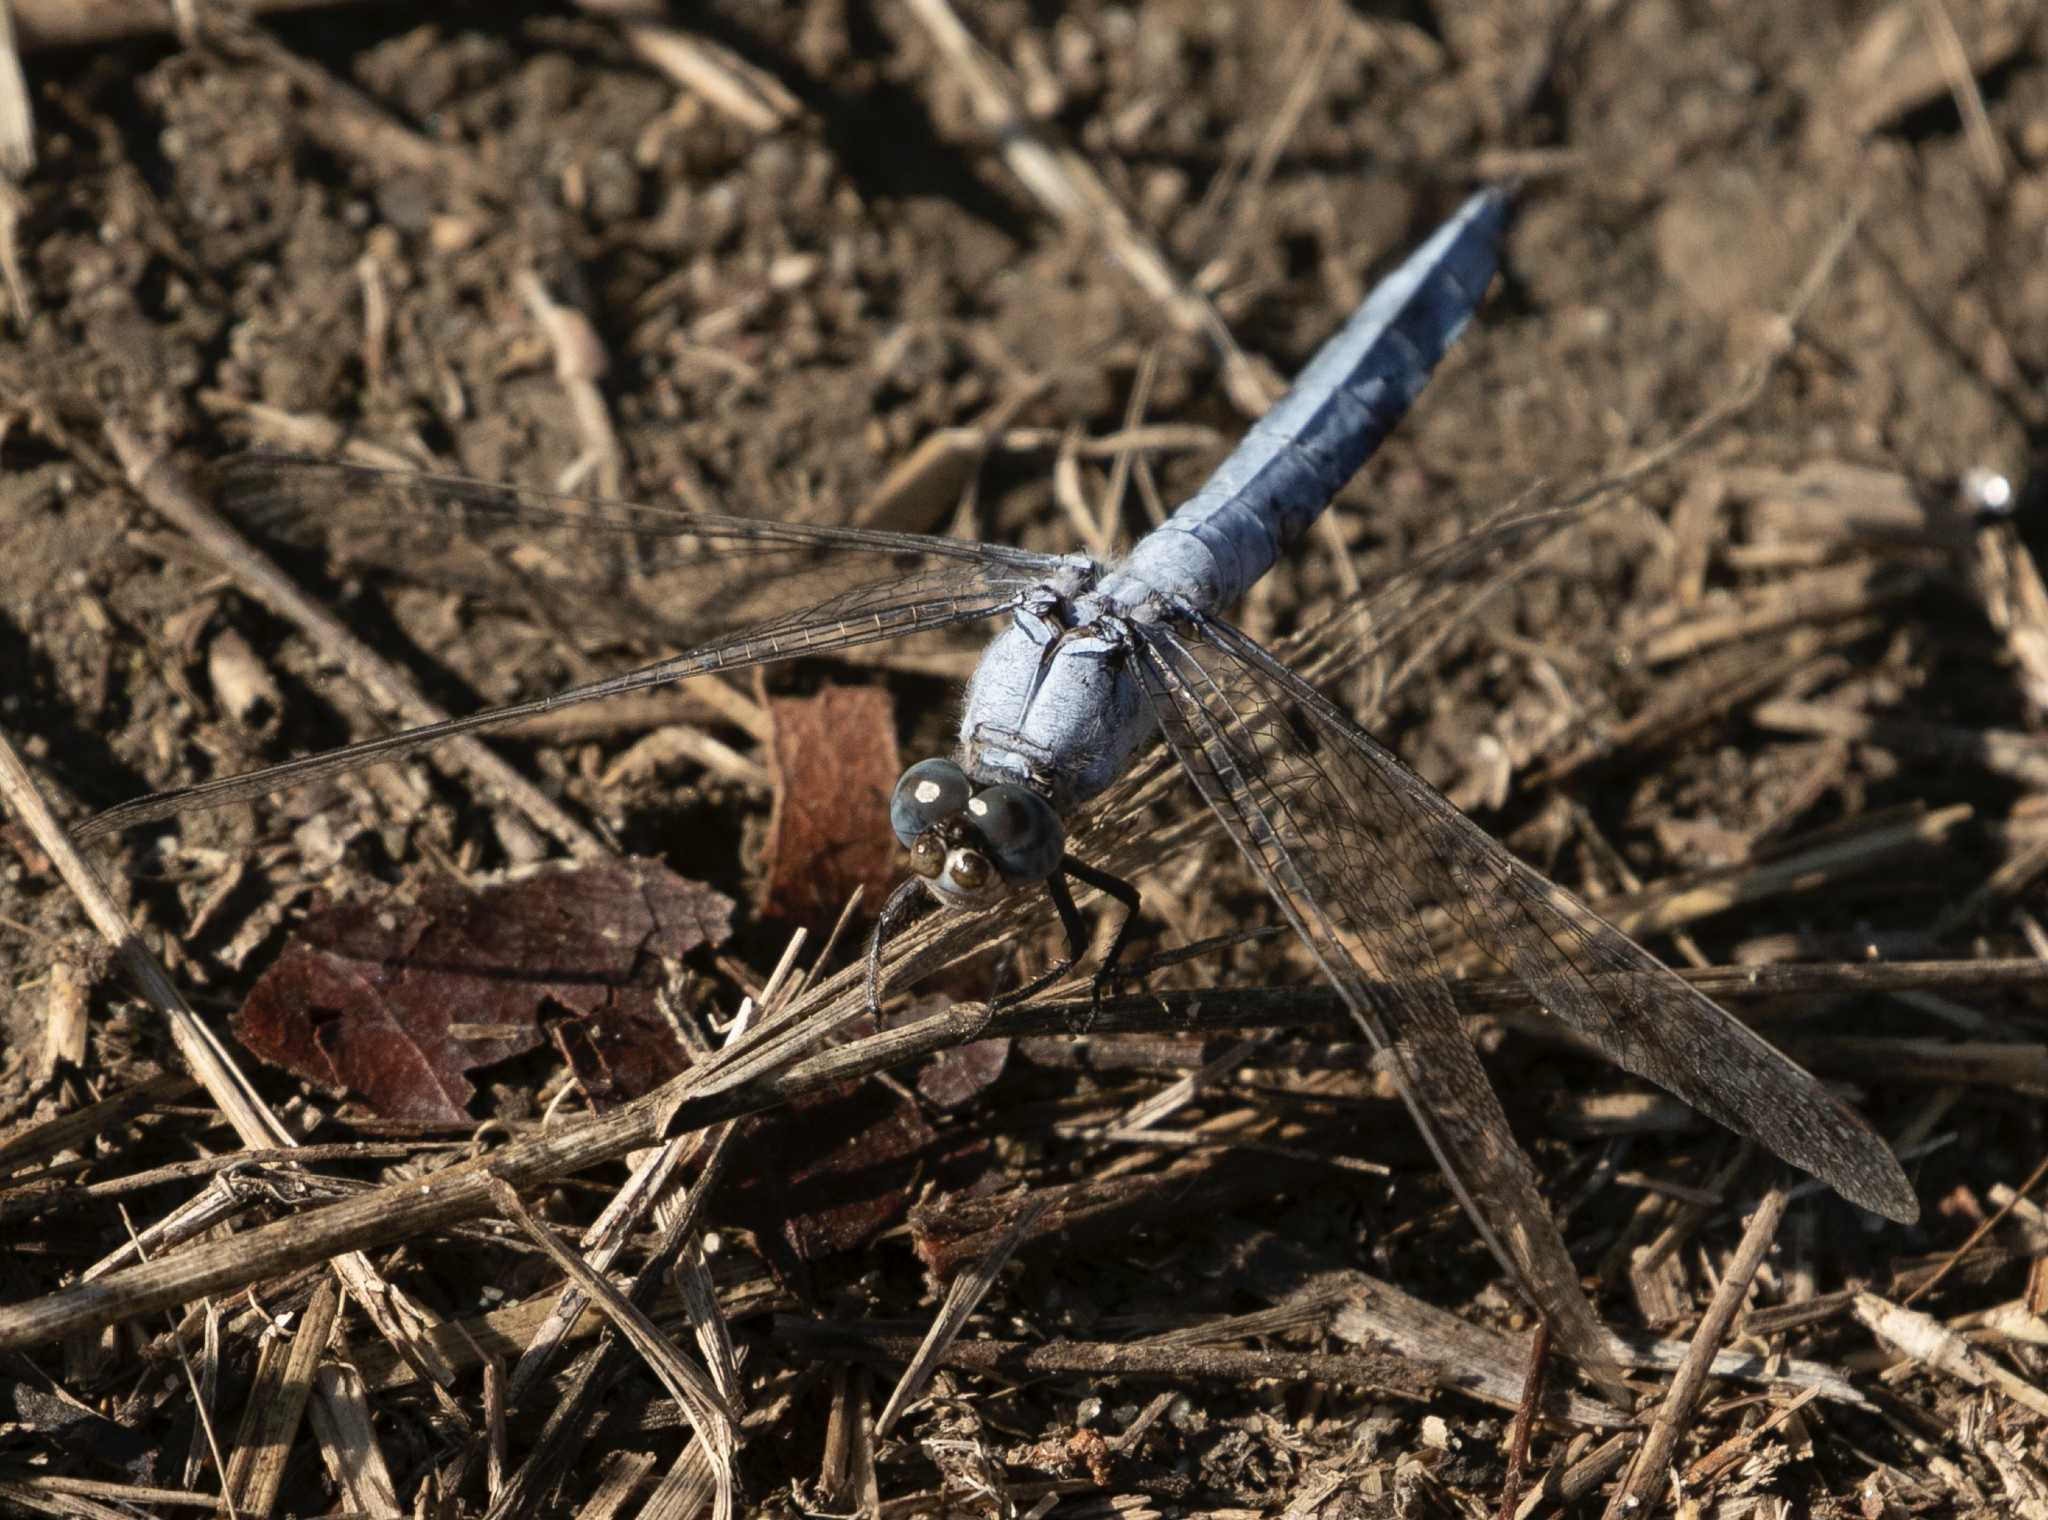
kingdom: Animalia
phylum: Arthropoda
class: Insecta
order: Odonata
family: Libellulidae
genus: Orthetrum
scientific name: Orthetrum brunneum
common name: Southern skimmer
